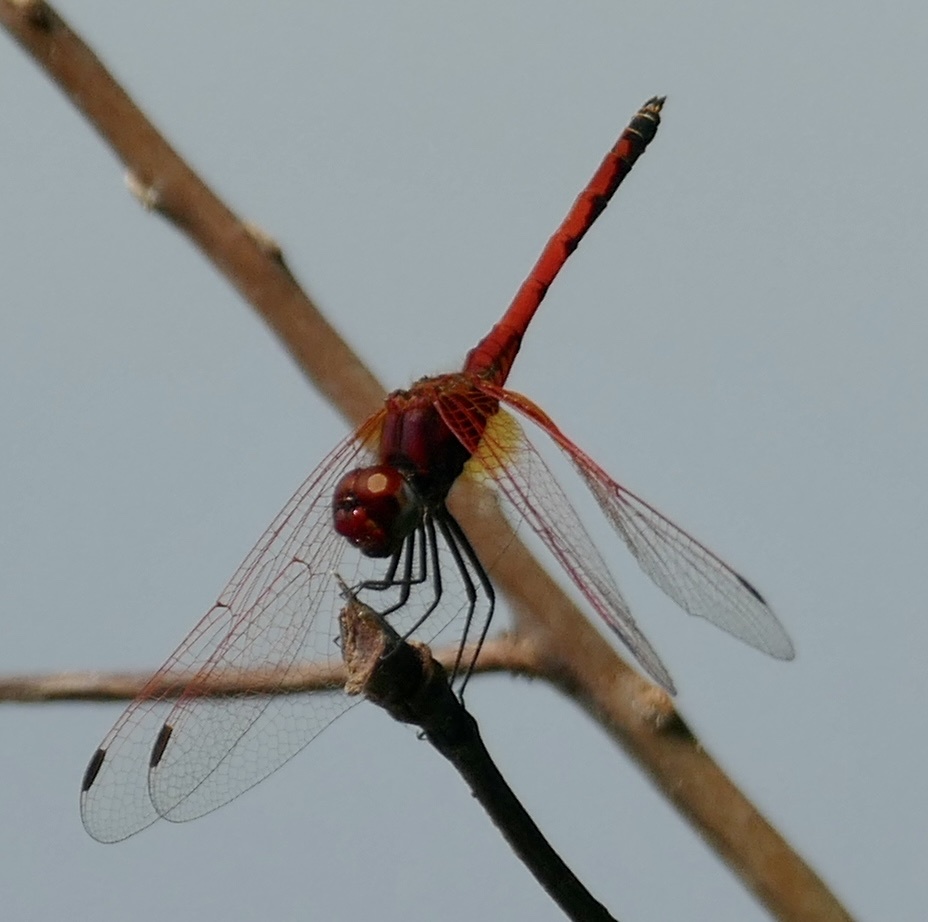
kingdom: Animalia
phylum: Arthropoda
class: Insecta
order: Odonata
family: Libellulidae
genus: Trithemis
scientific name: Trithemis arteriosa
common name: Red-veined dropwing
